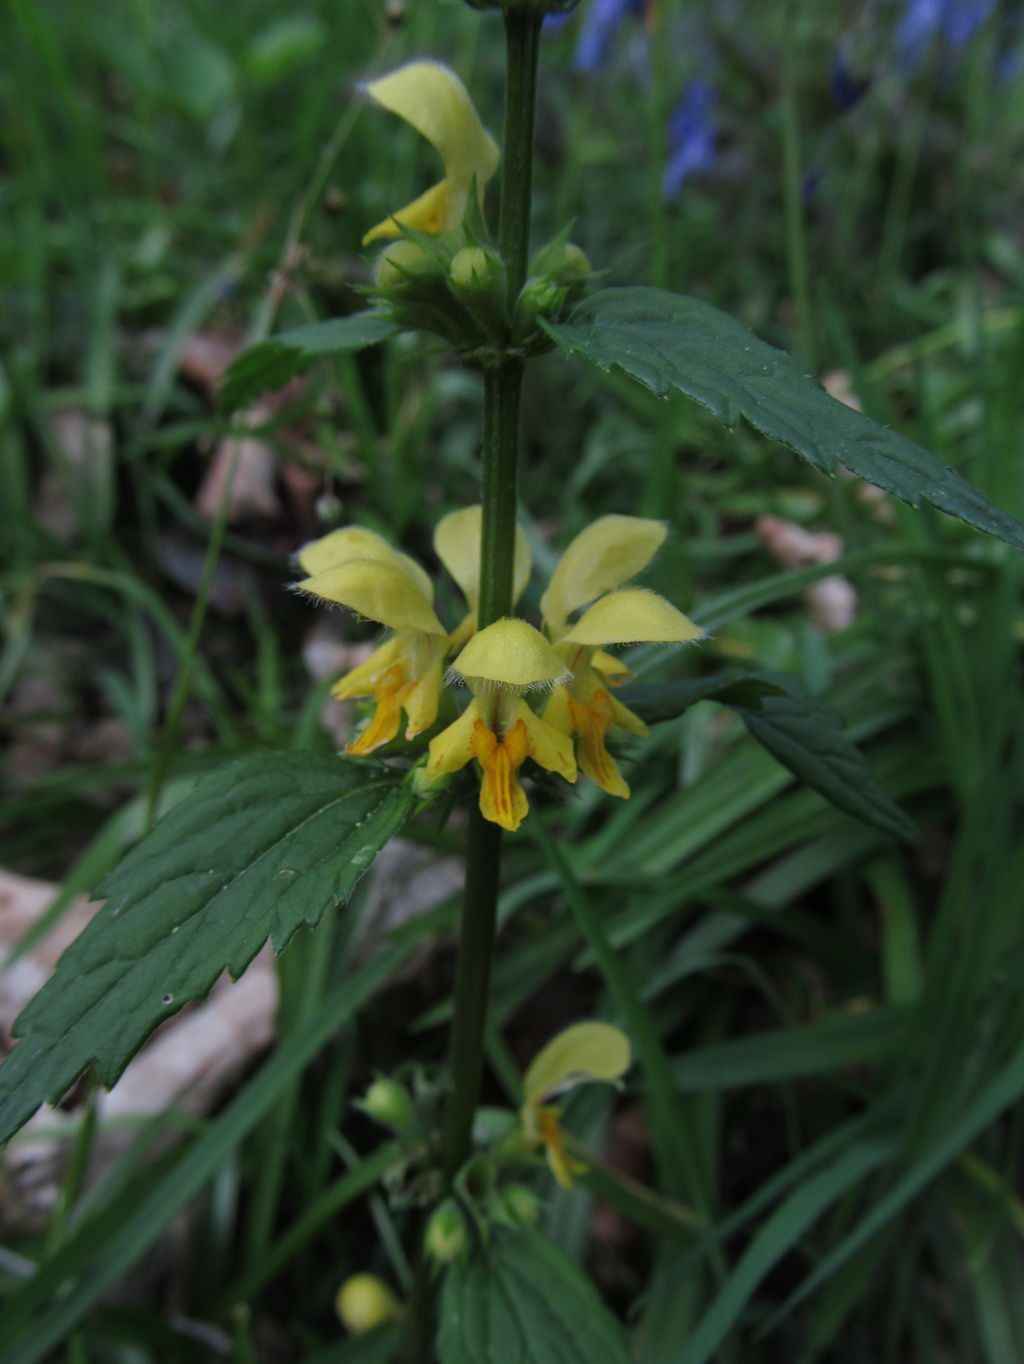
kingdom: Plantae
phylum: Tracheophyta
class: Magnoliopsida
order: Lamiales
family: Lamiaceae
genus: Lamium
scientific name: Lamium galeobdolon
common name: Yellow archangel
